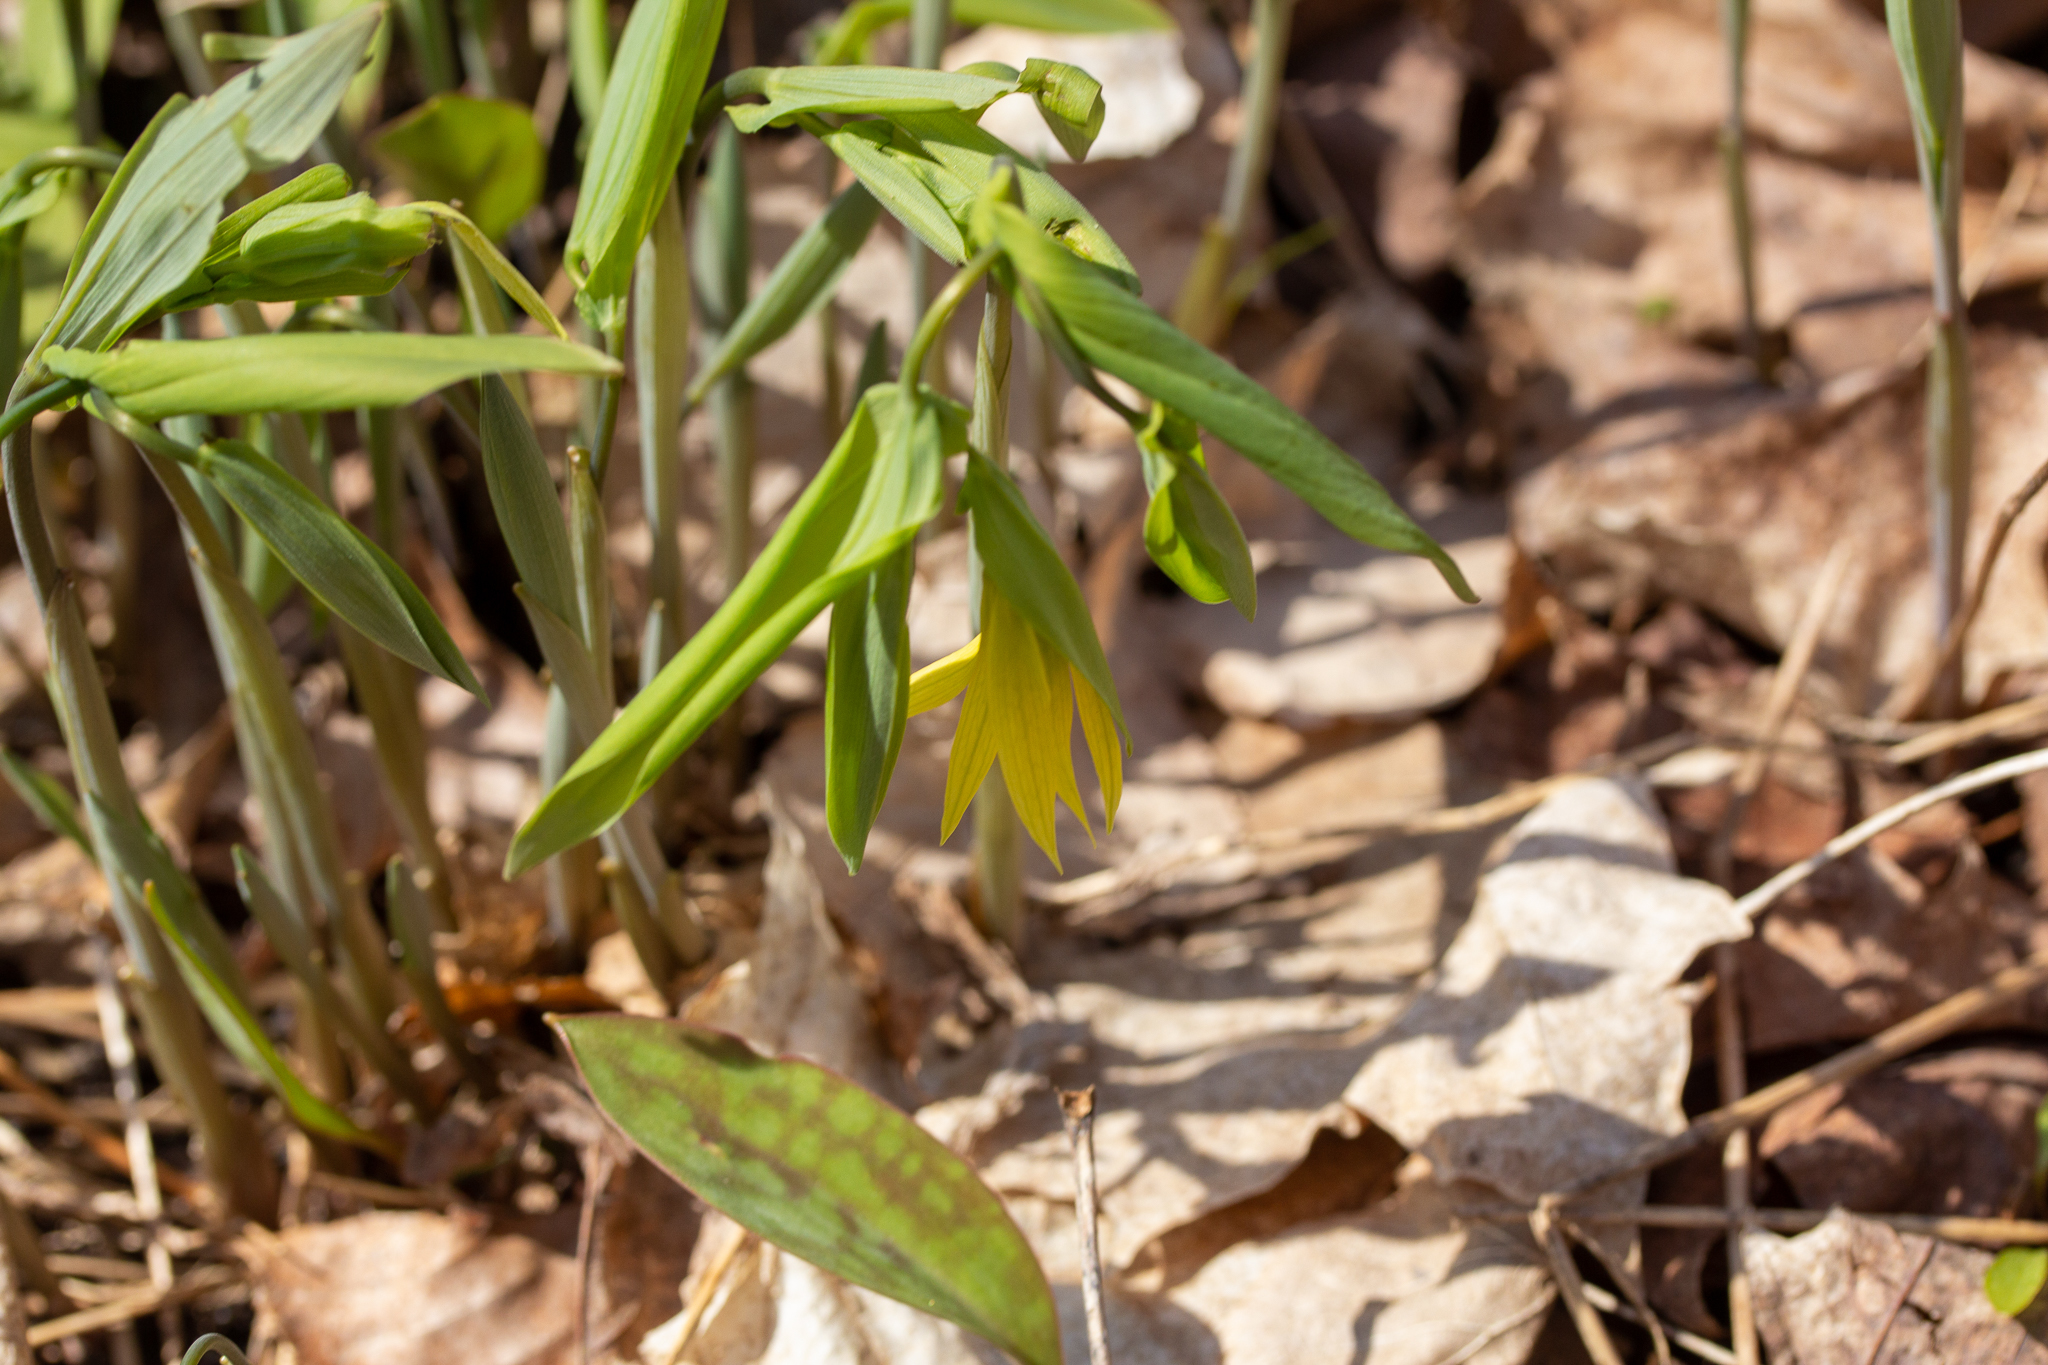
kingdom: Plantae
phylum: Tracheophyta
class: Liliopsida
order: Liliales
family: Colchicaceae
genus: Uvularia
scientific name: Uvularia grandiflora
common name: Bellwort
